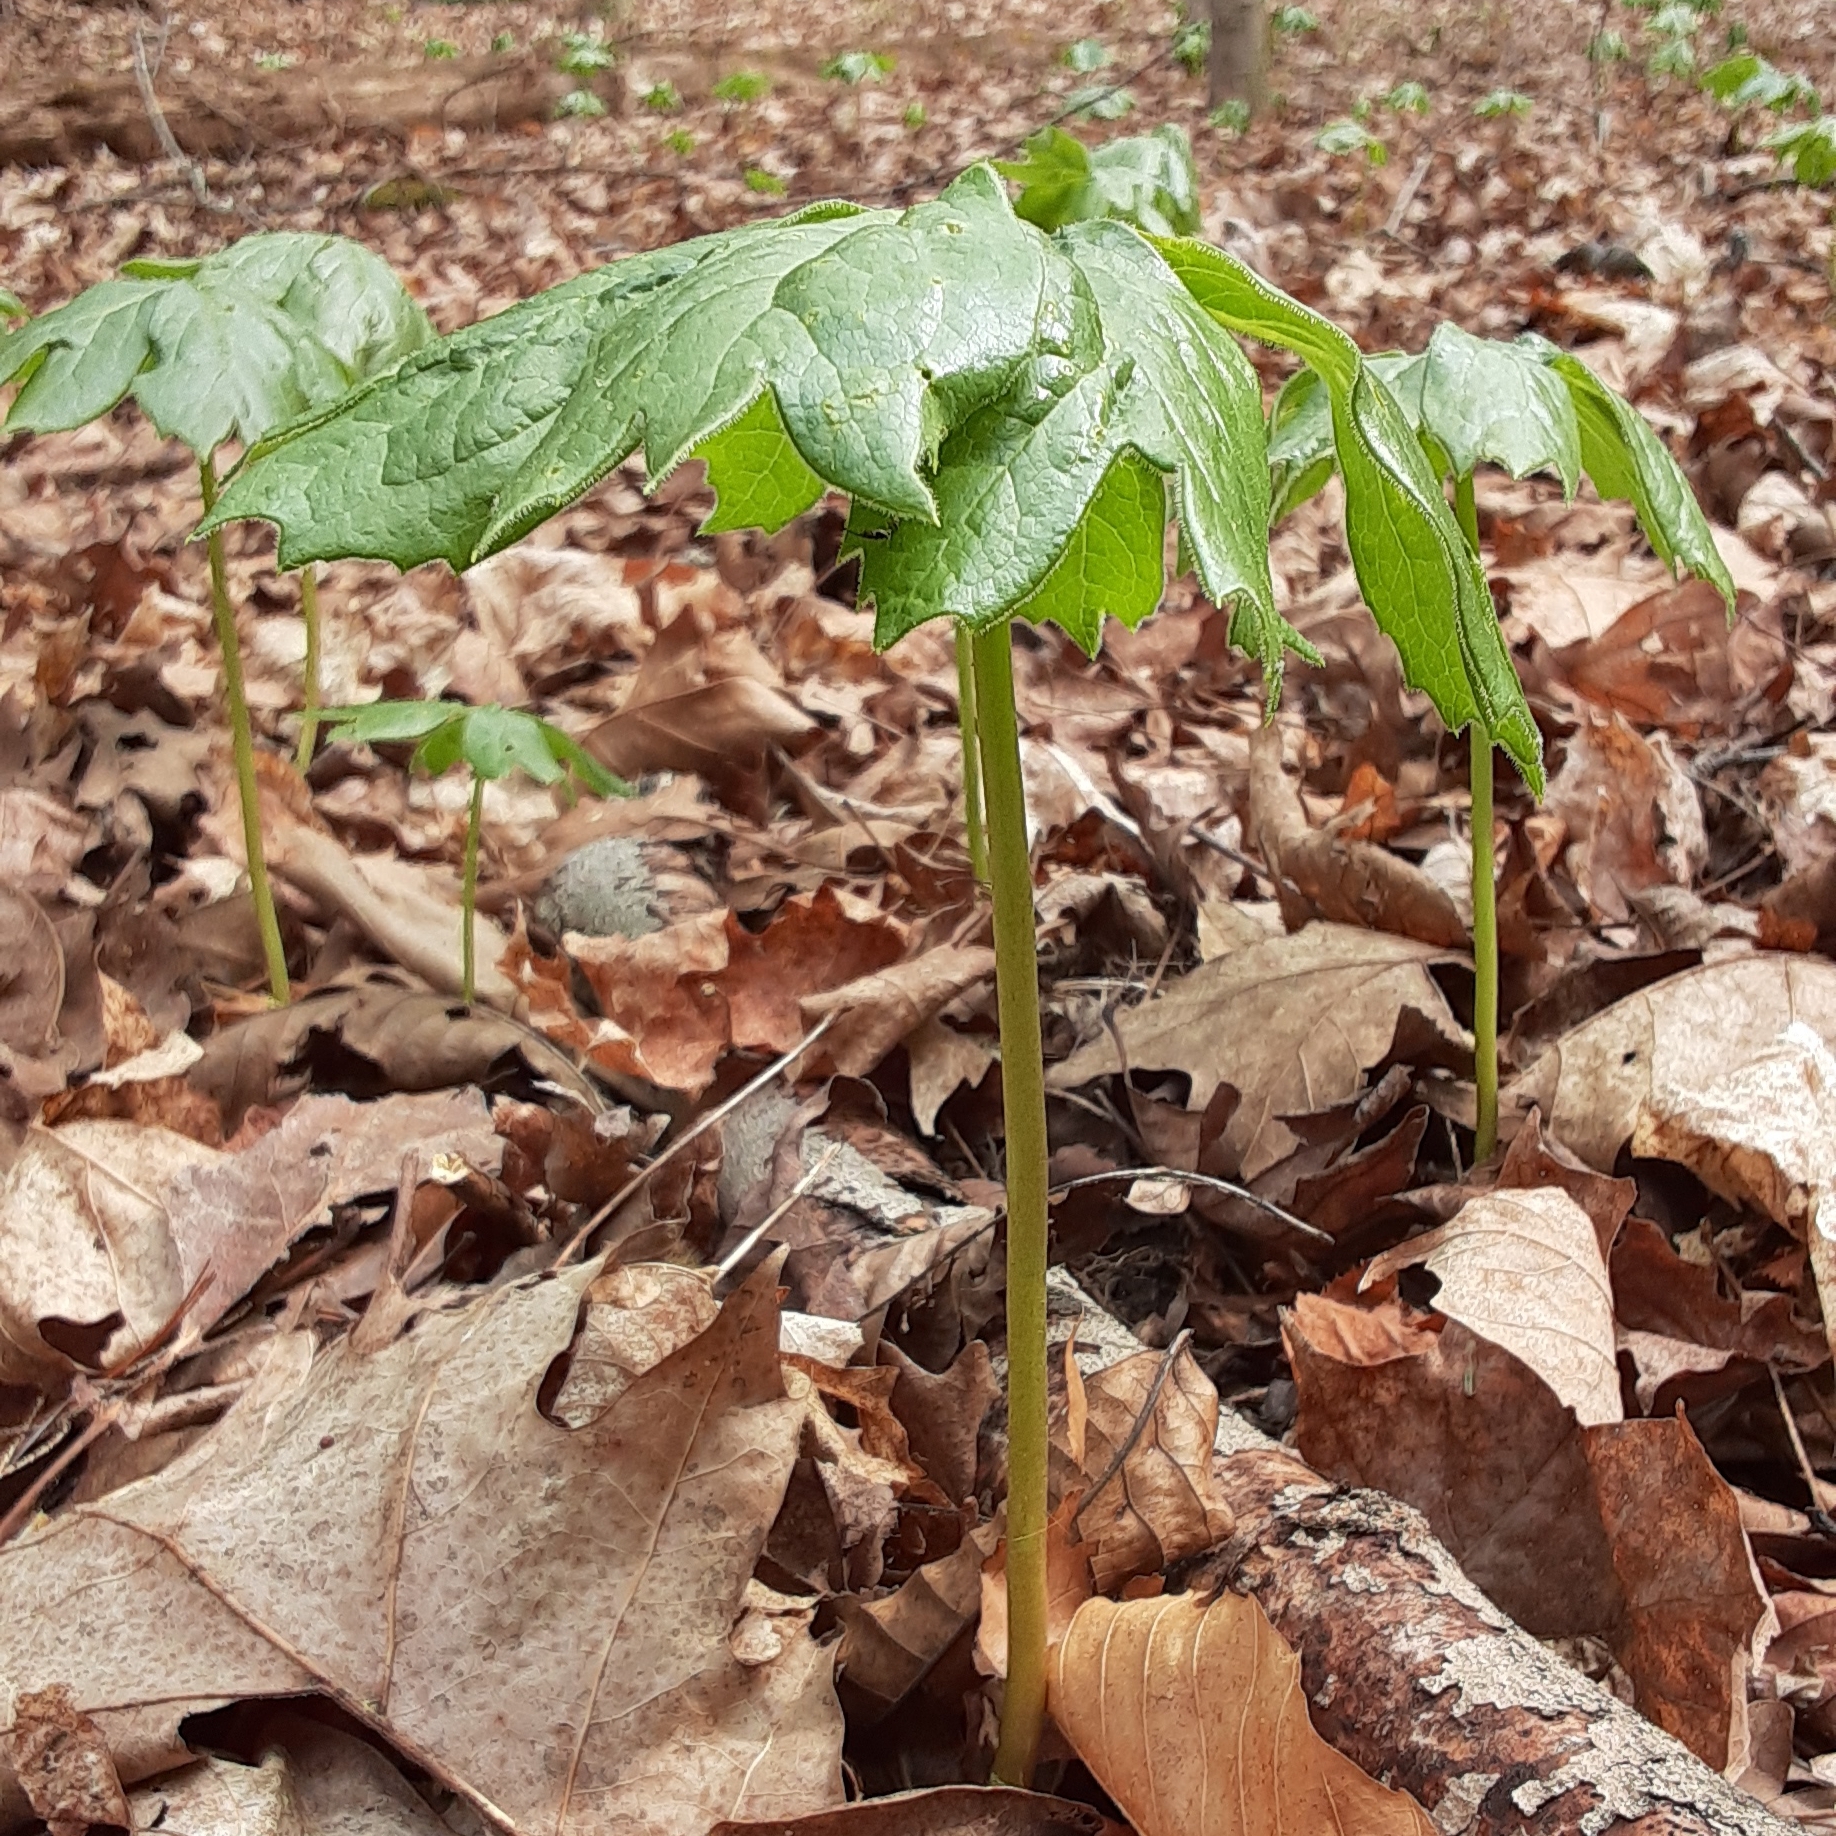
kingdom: Plantae
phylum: Tracheophyta
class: Magnoliopsida
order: Ranunculales
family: Berberidaceae
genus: Podophyllum
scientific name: Podophyllum peltatum
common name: Wild mandrake
